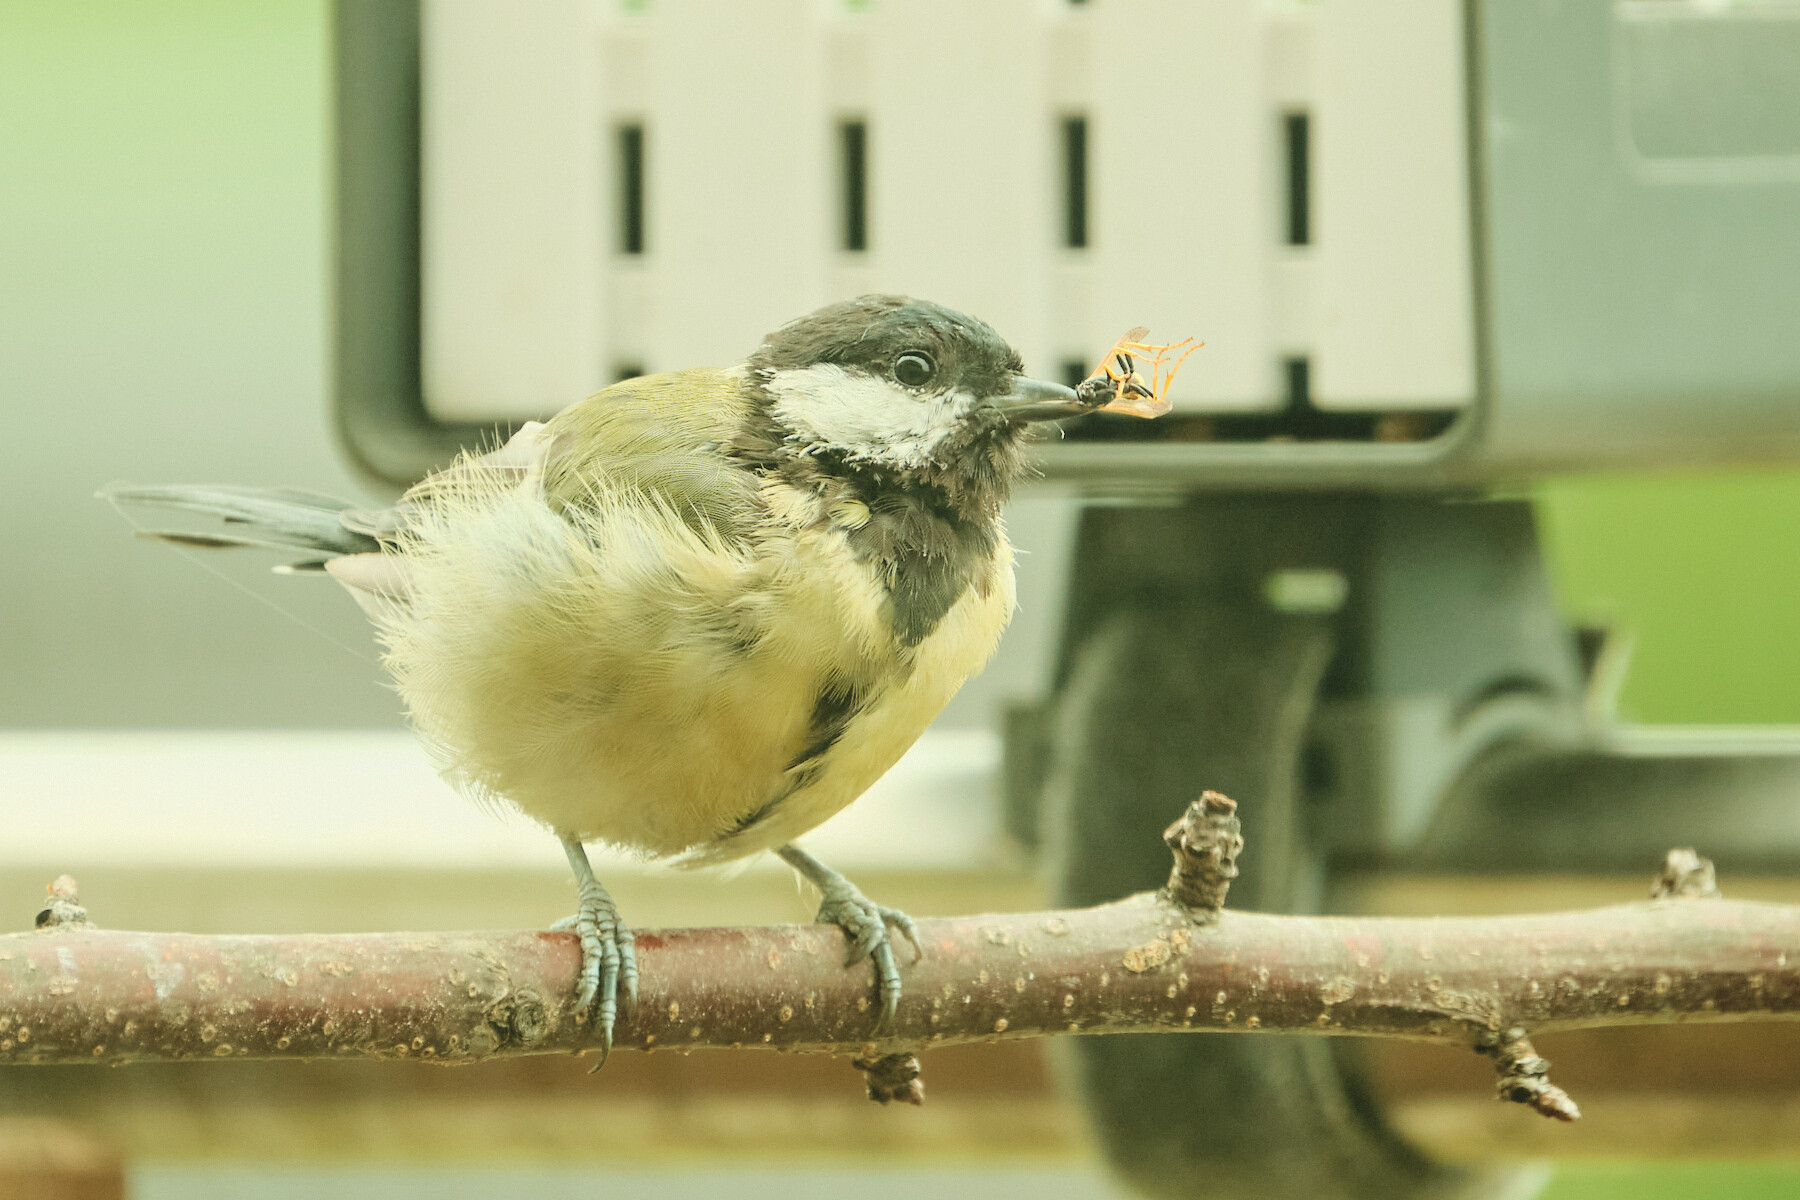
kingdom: Animalia
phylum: Chordata
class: Aves
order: Passeriformes
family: Paridae
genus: Parus
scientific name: Parus major
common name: Great tit
